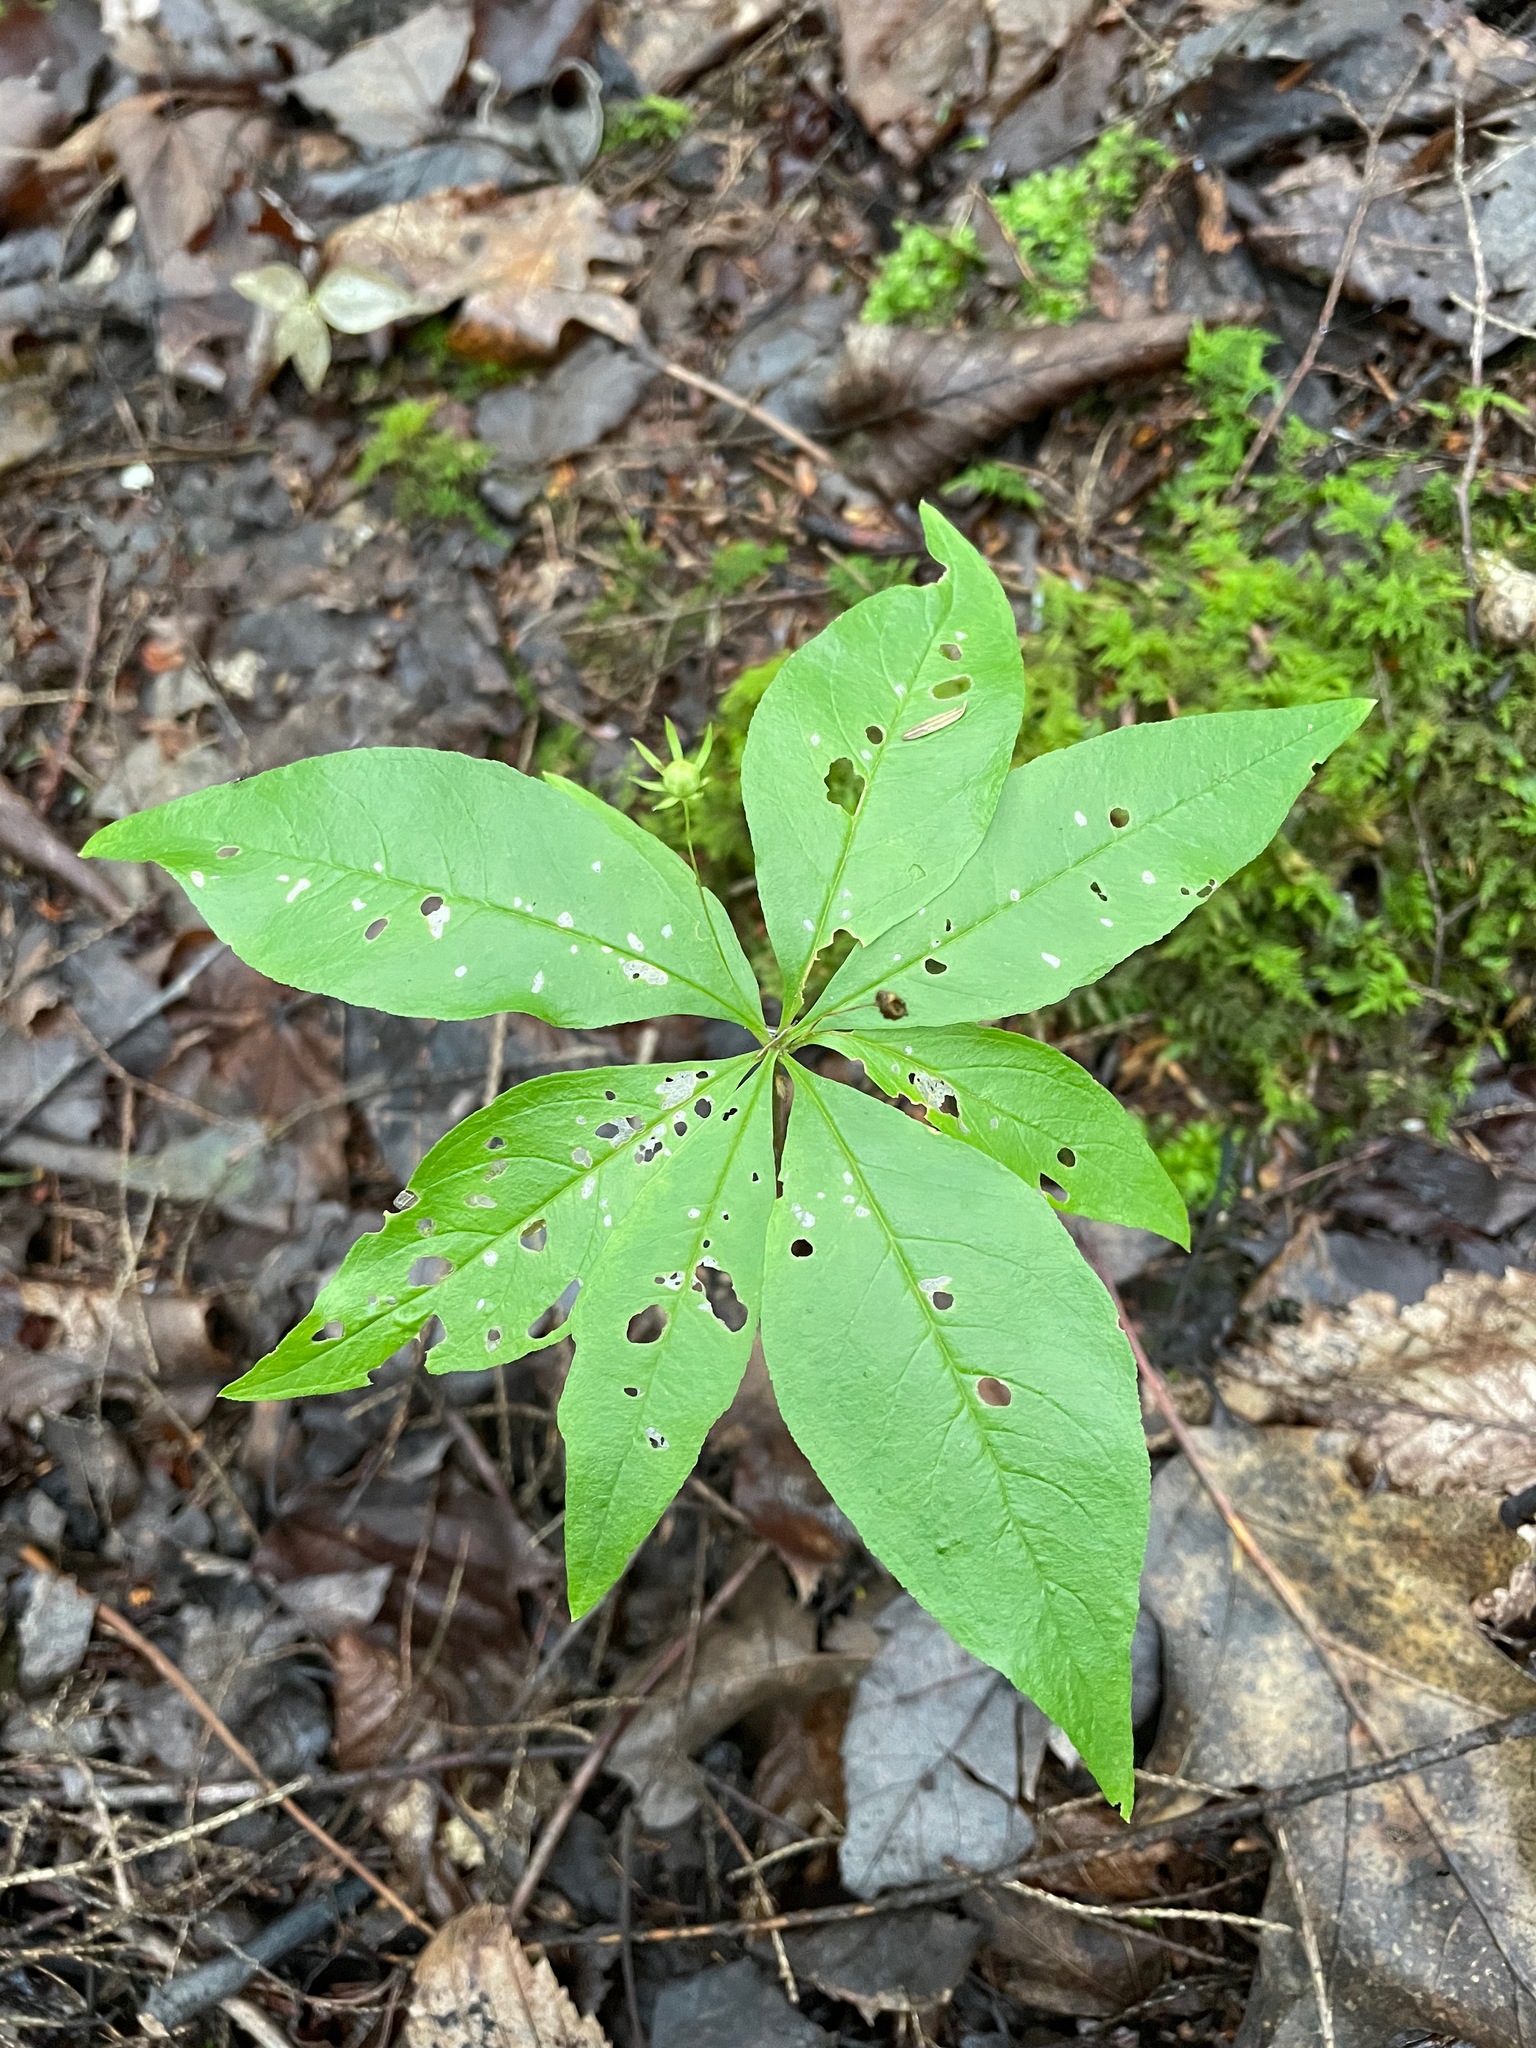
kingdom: Plantae
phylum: Tracheophyta
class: Magnoliopsida
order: Ericales
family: Primulaceae
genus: Lysimachia
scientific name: Lysimachia borealis
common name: American starflower
